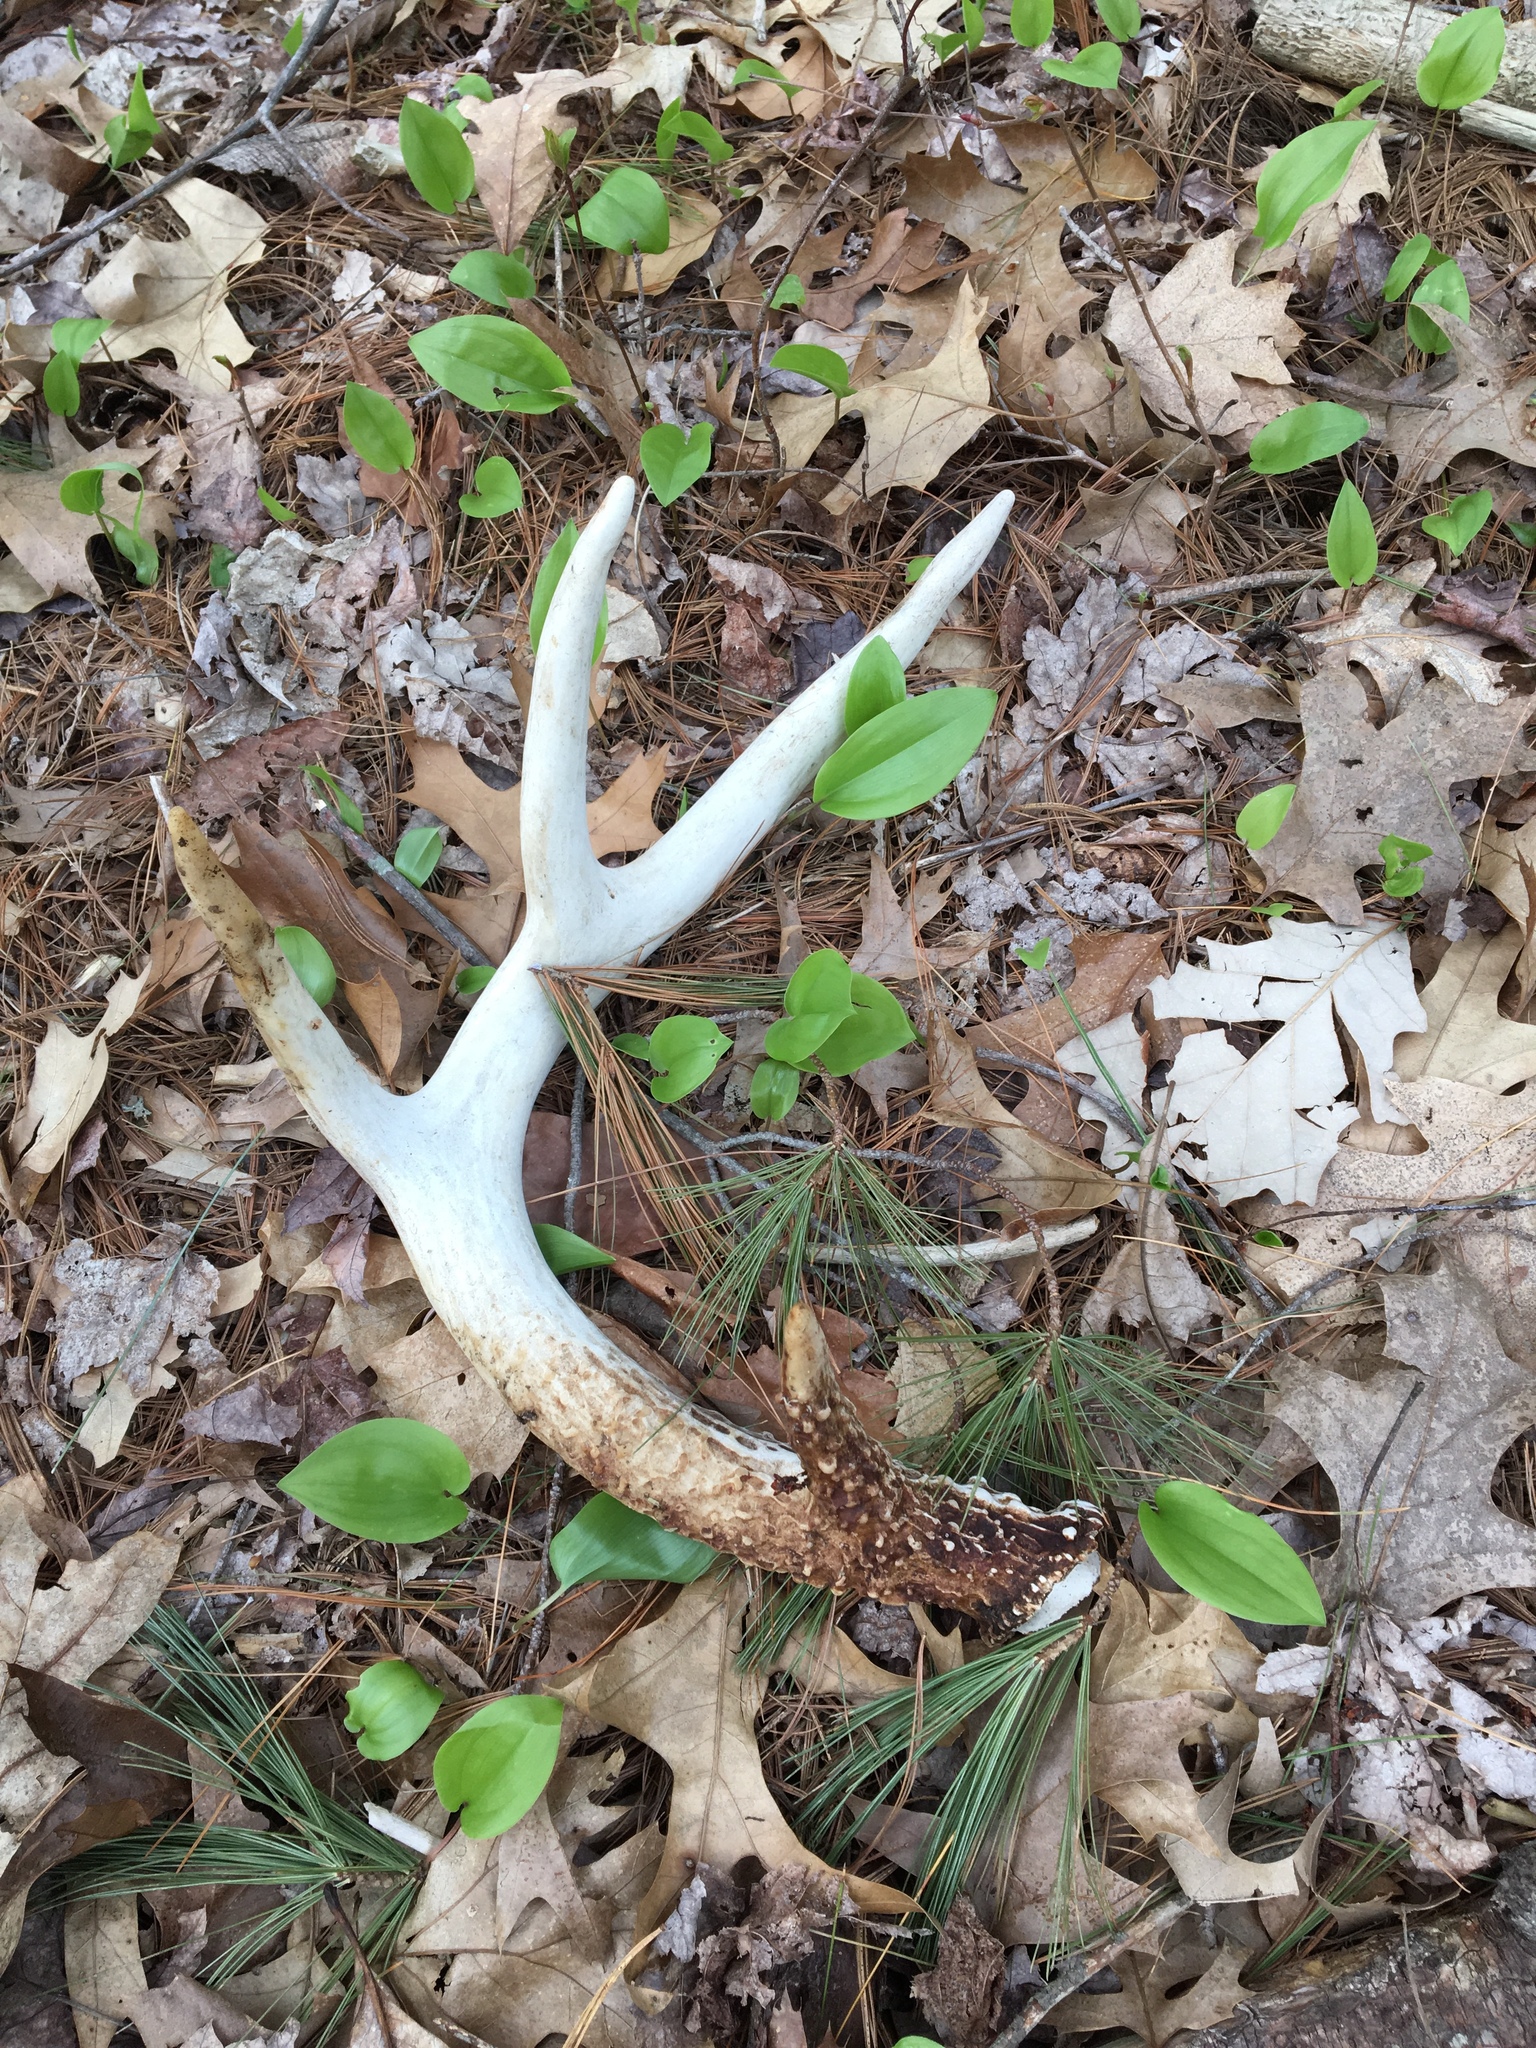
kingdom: Animalia
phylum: Chordata
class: Mammalia
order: Artiodactyla
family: Cervidae
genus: Odocoileus
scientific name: Odocoileus virginianus
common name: White-tailed deer
